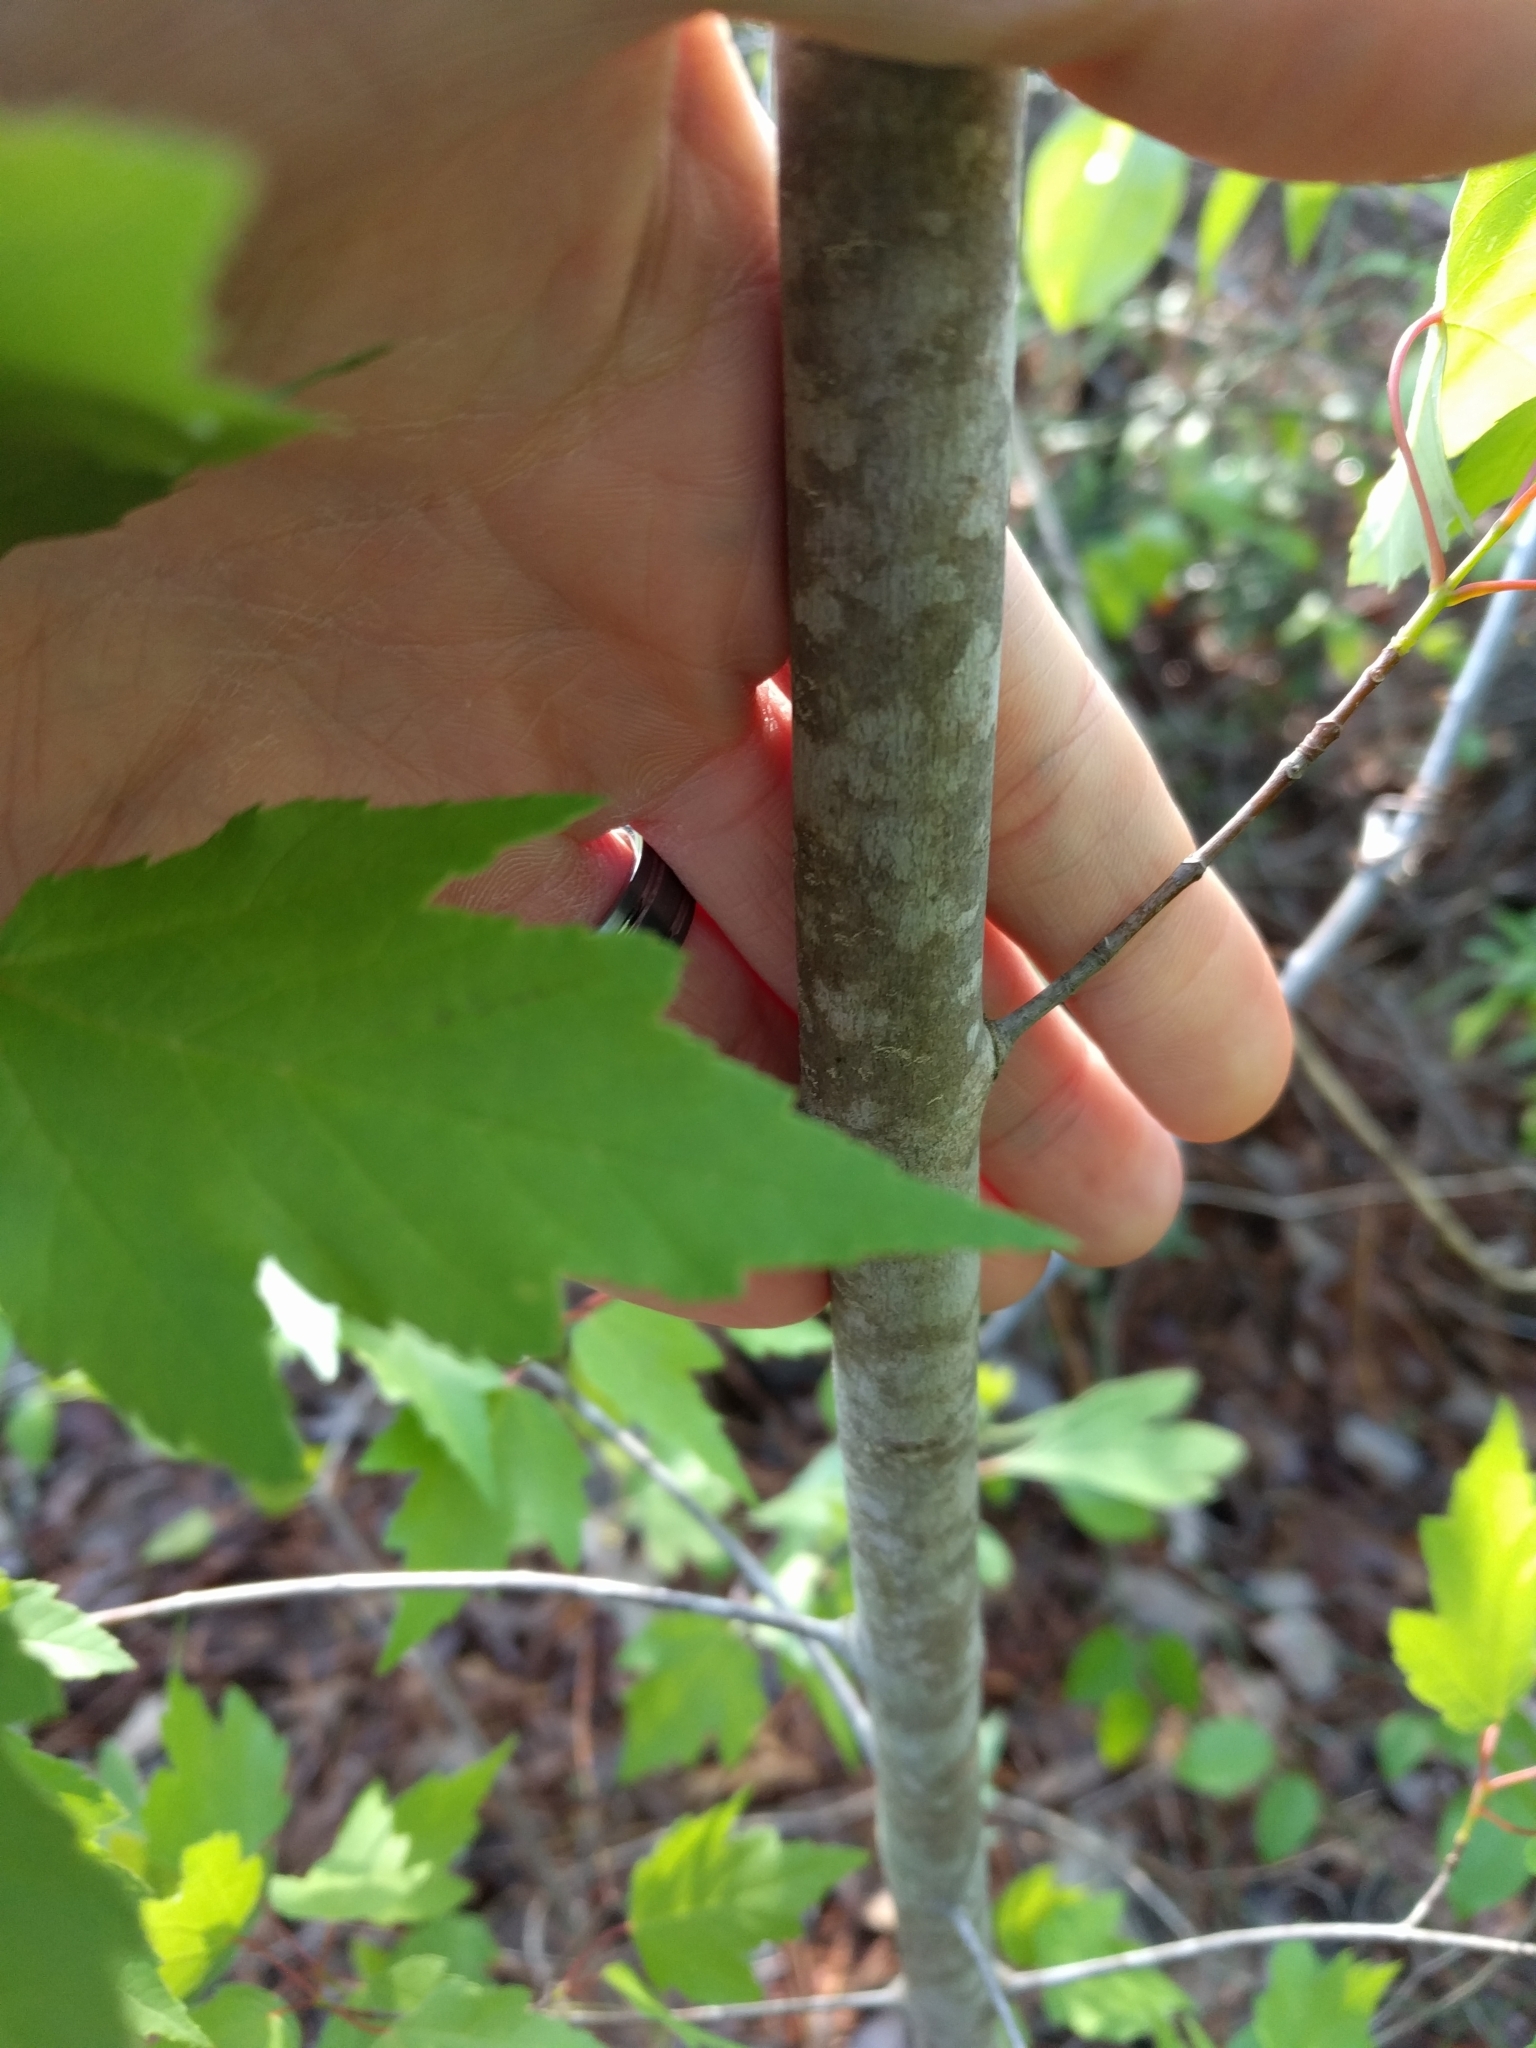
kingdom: Plantae
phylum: Tracheophyta
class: Magnoliopsida
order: Sapindales
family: Sapindaceae
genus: Acer
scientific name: Acer rubrum
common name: Red maple
